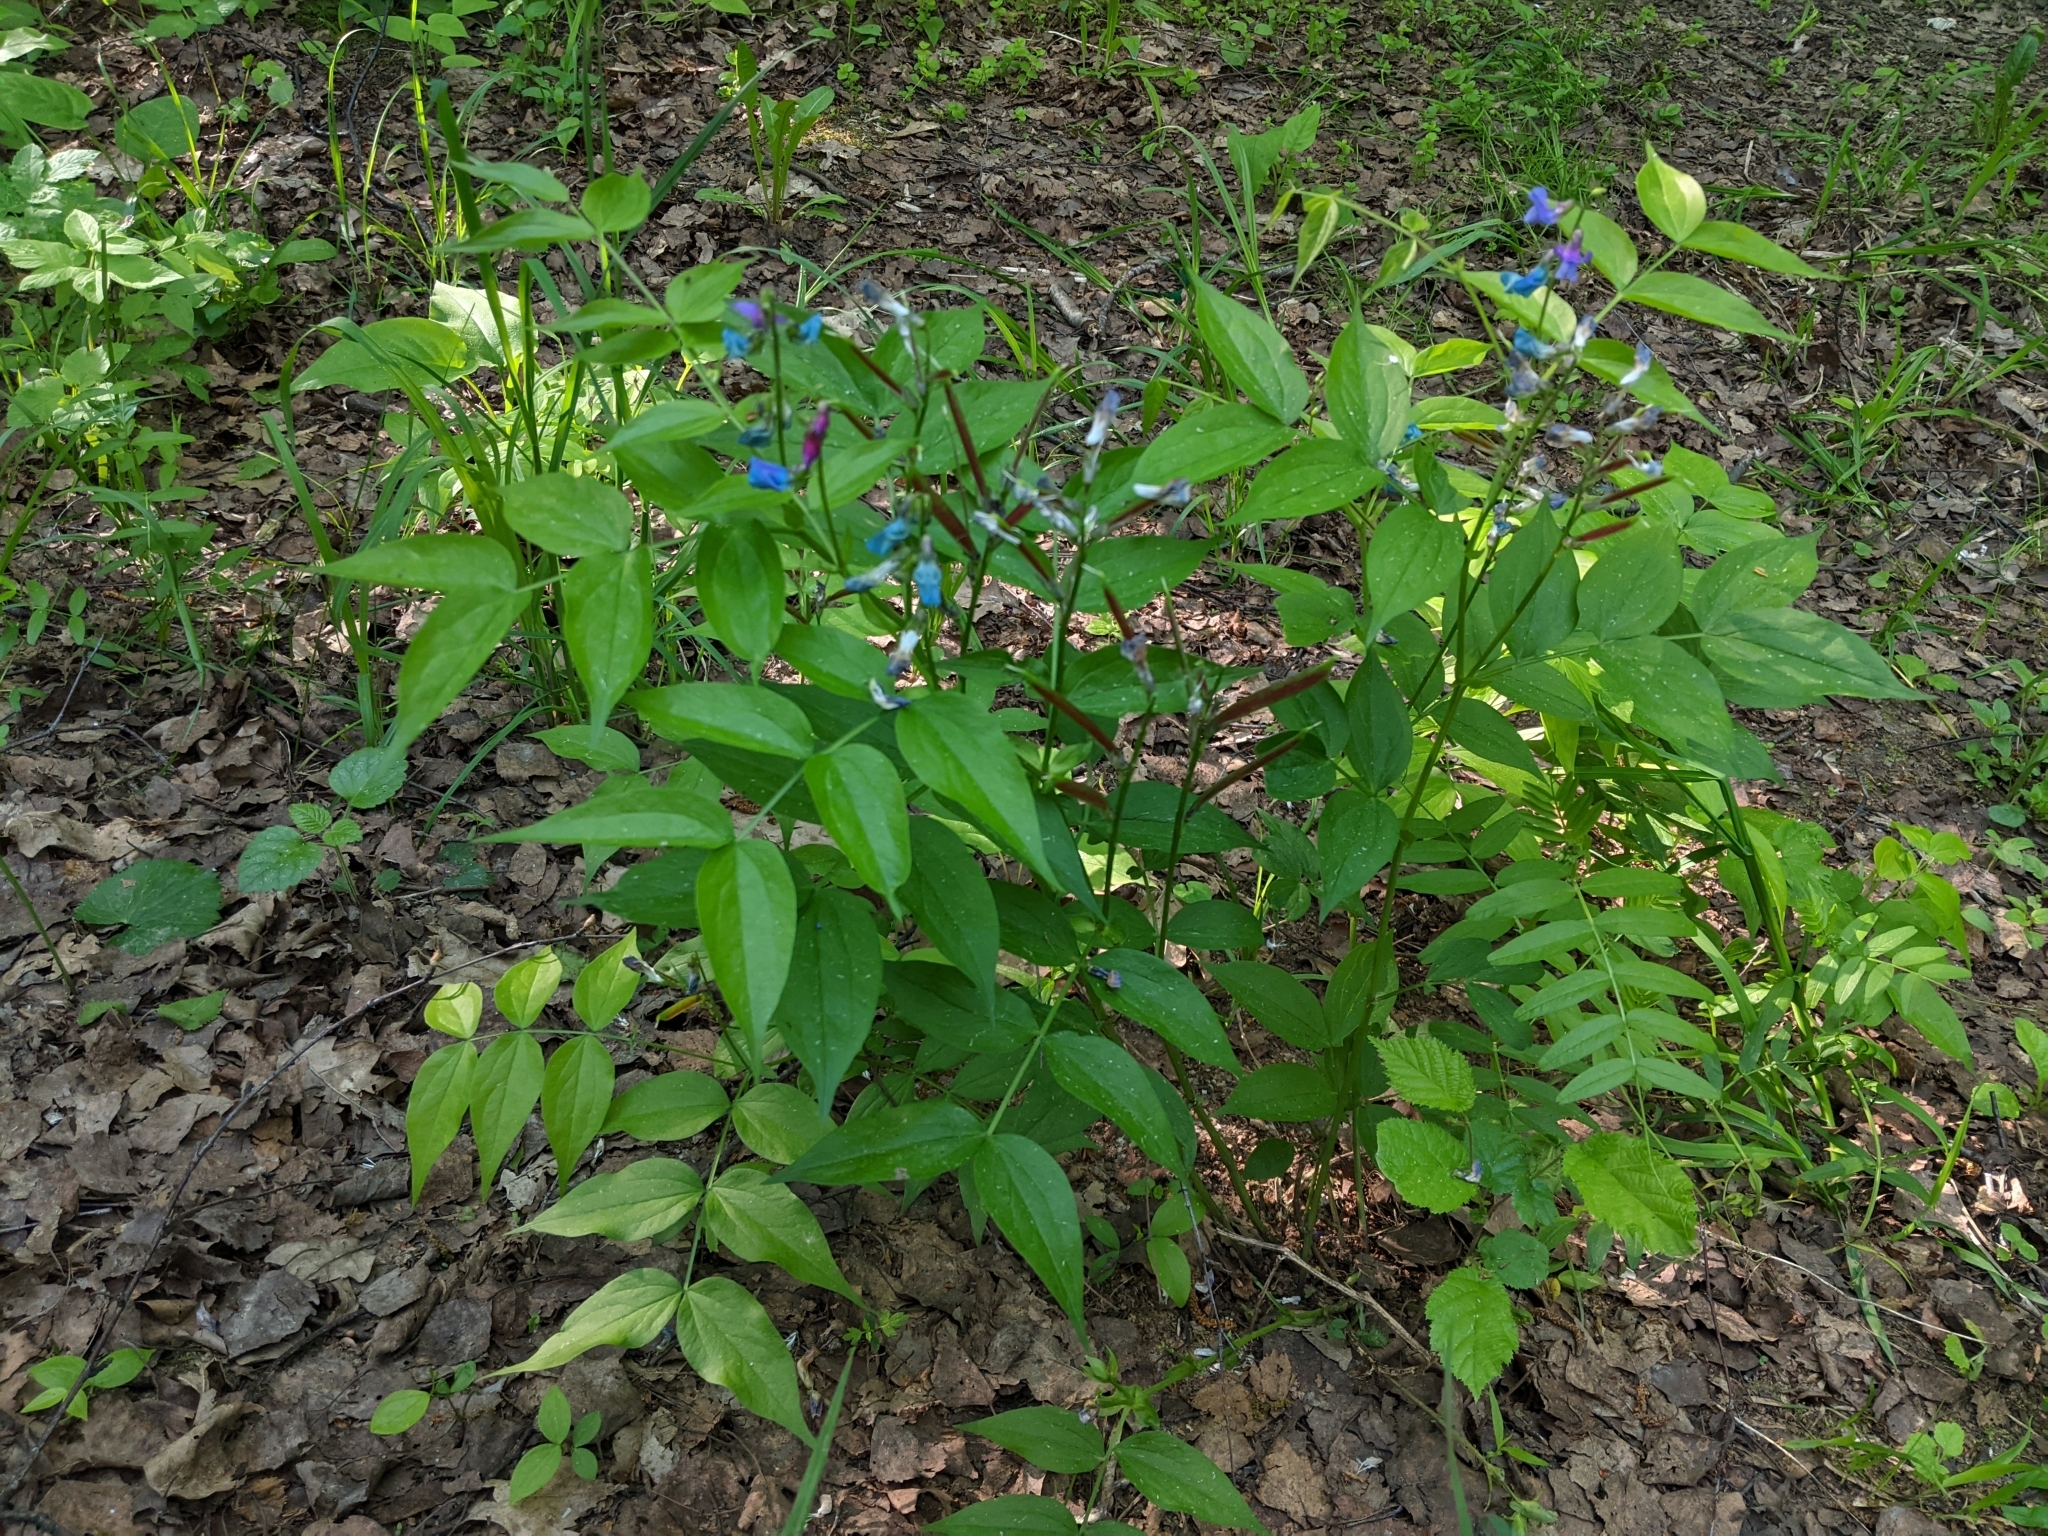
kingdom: Plantae
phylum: Tracheophyta
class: Magnoliopsida
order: Fabales
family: Fabaceae
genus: Lathyrus
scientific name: Lathyrus vernus
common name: Spring pea
